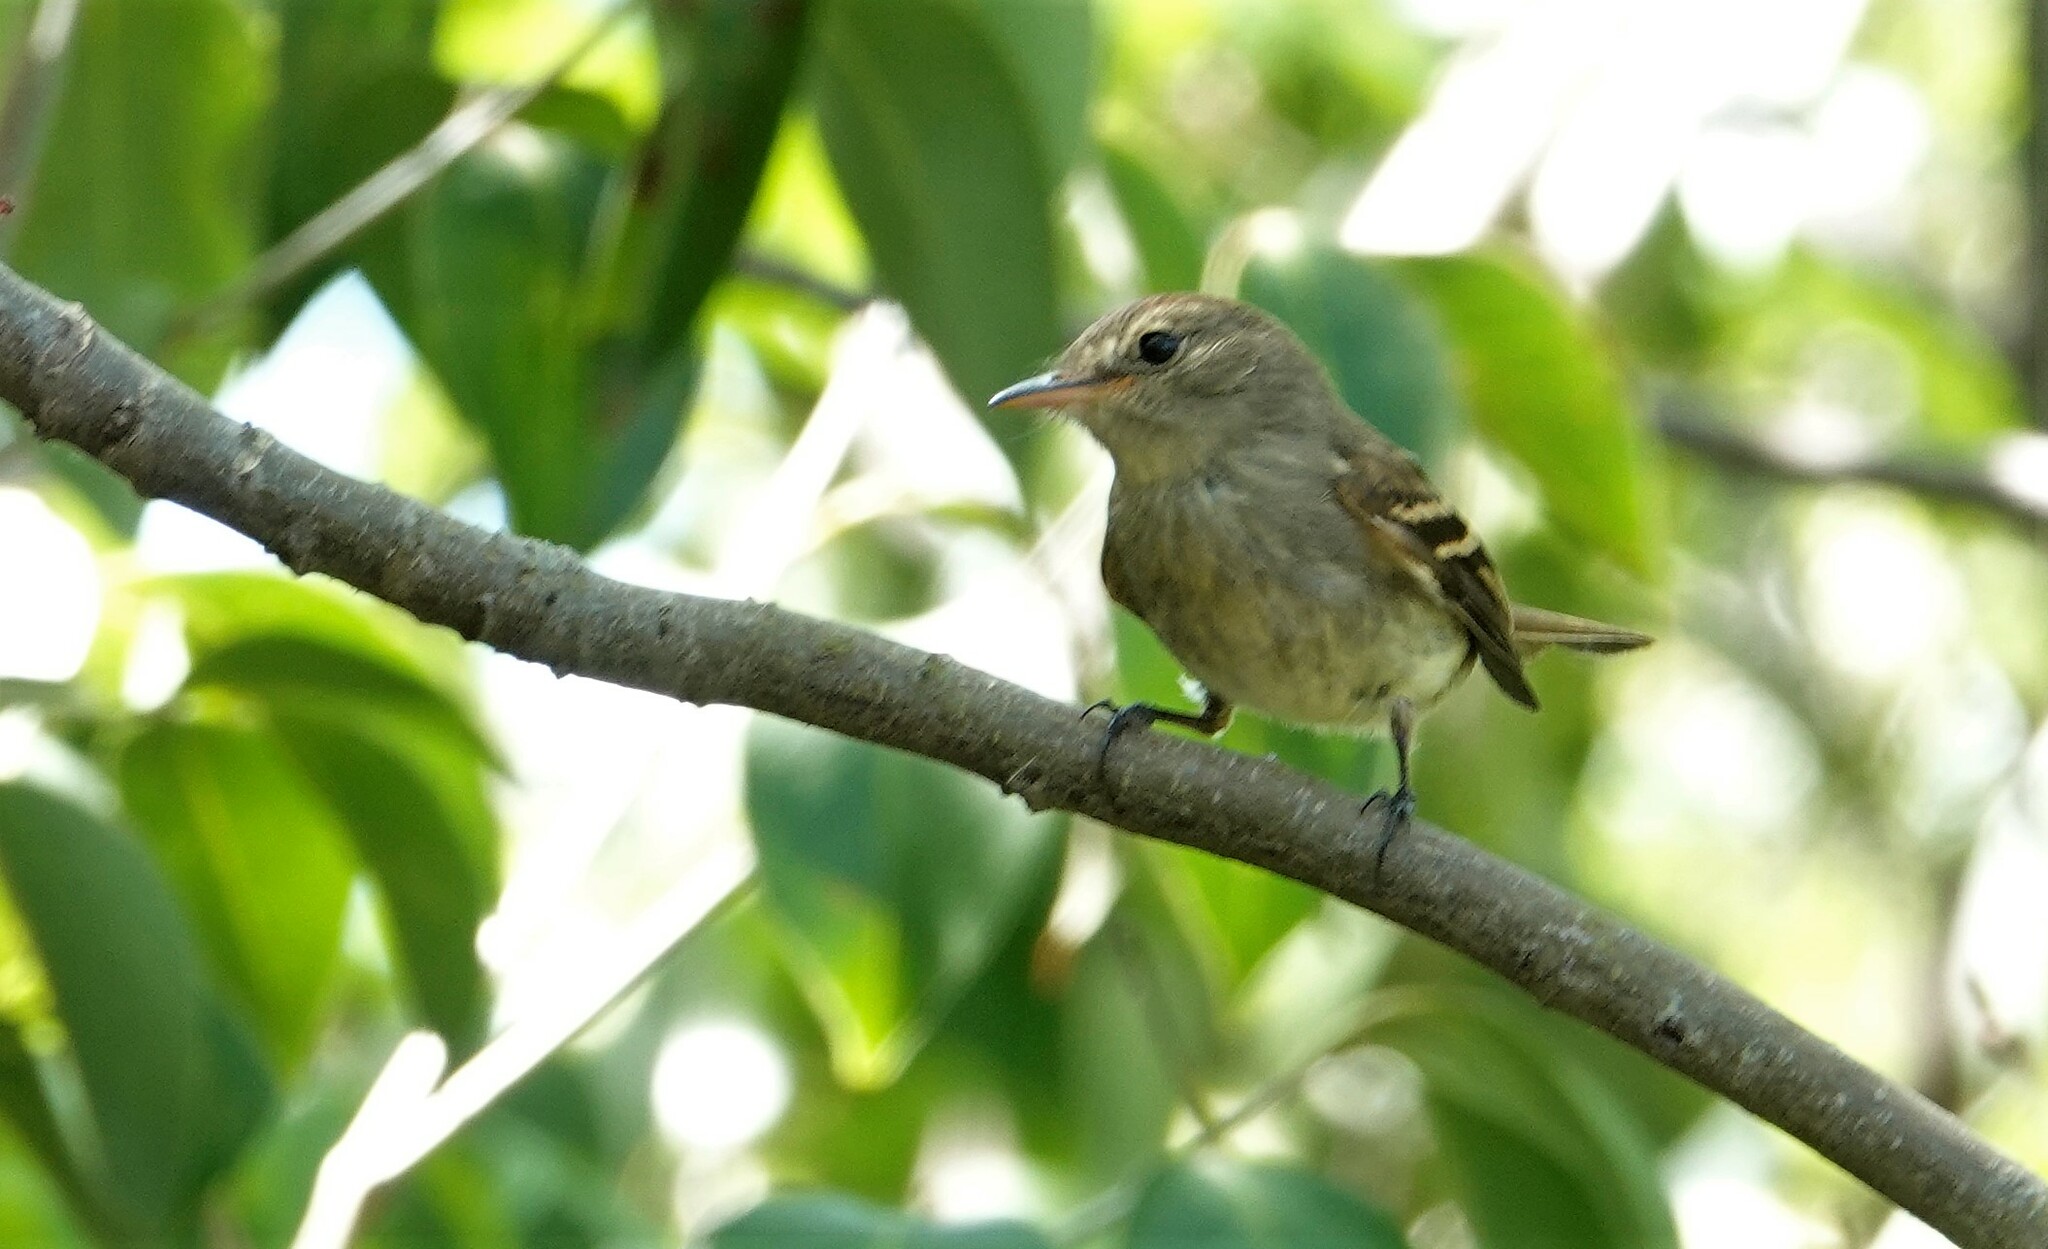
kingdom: Animalia
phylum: Chordata
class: Aves
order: Passeriformes
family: Tyrannidae
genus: Lathrotriccus
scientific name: Lathrotriccus euleri
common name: Euler's flycatcher
